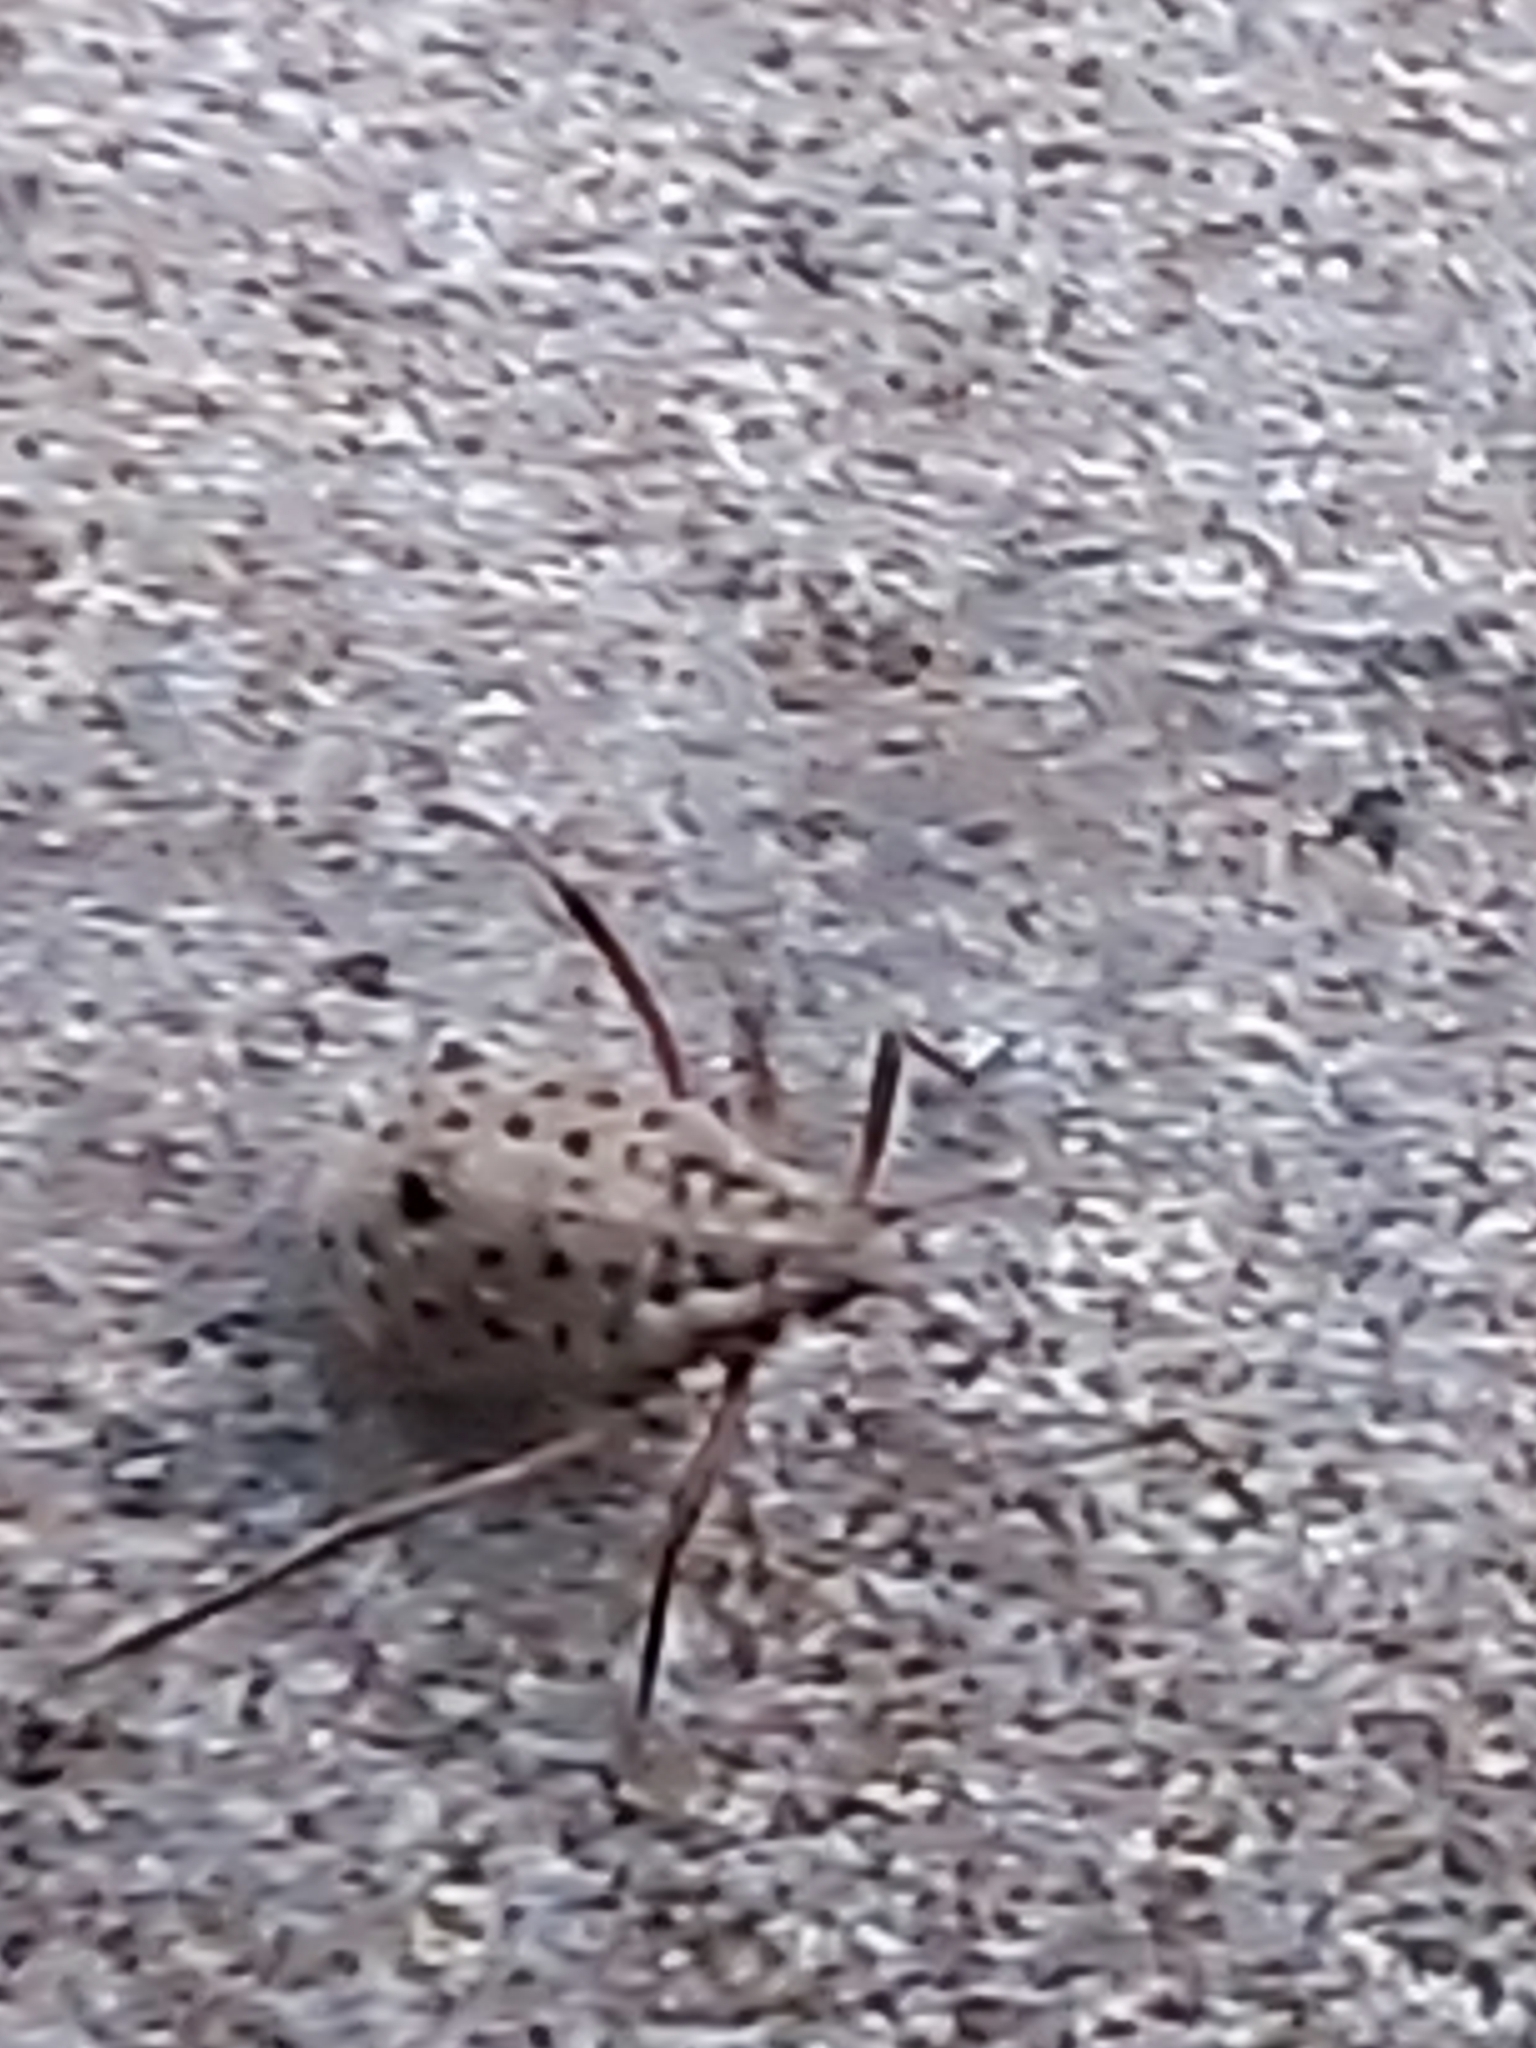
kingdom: Animalia
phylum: Arthropoda
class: Insecta
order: Hemiptera
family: Aphididae
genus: Tuberolachnus
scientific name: Tuberolachnus salignus
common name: Giant willow aphid
